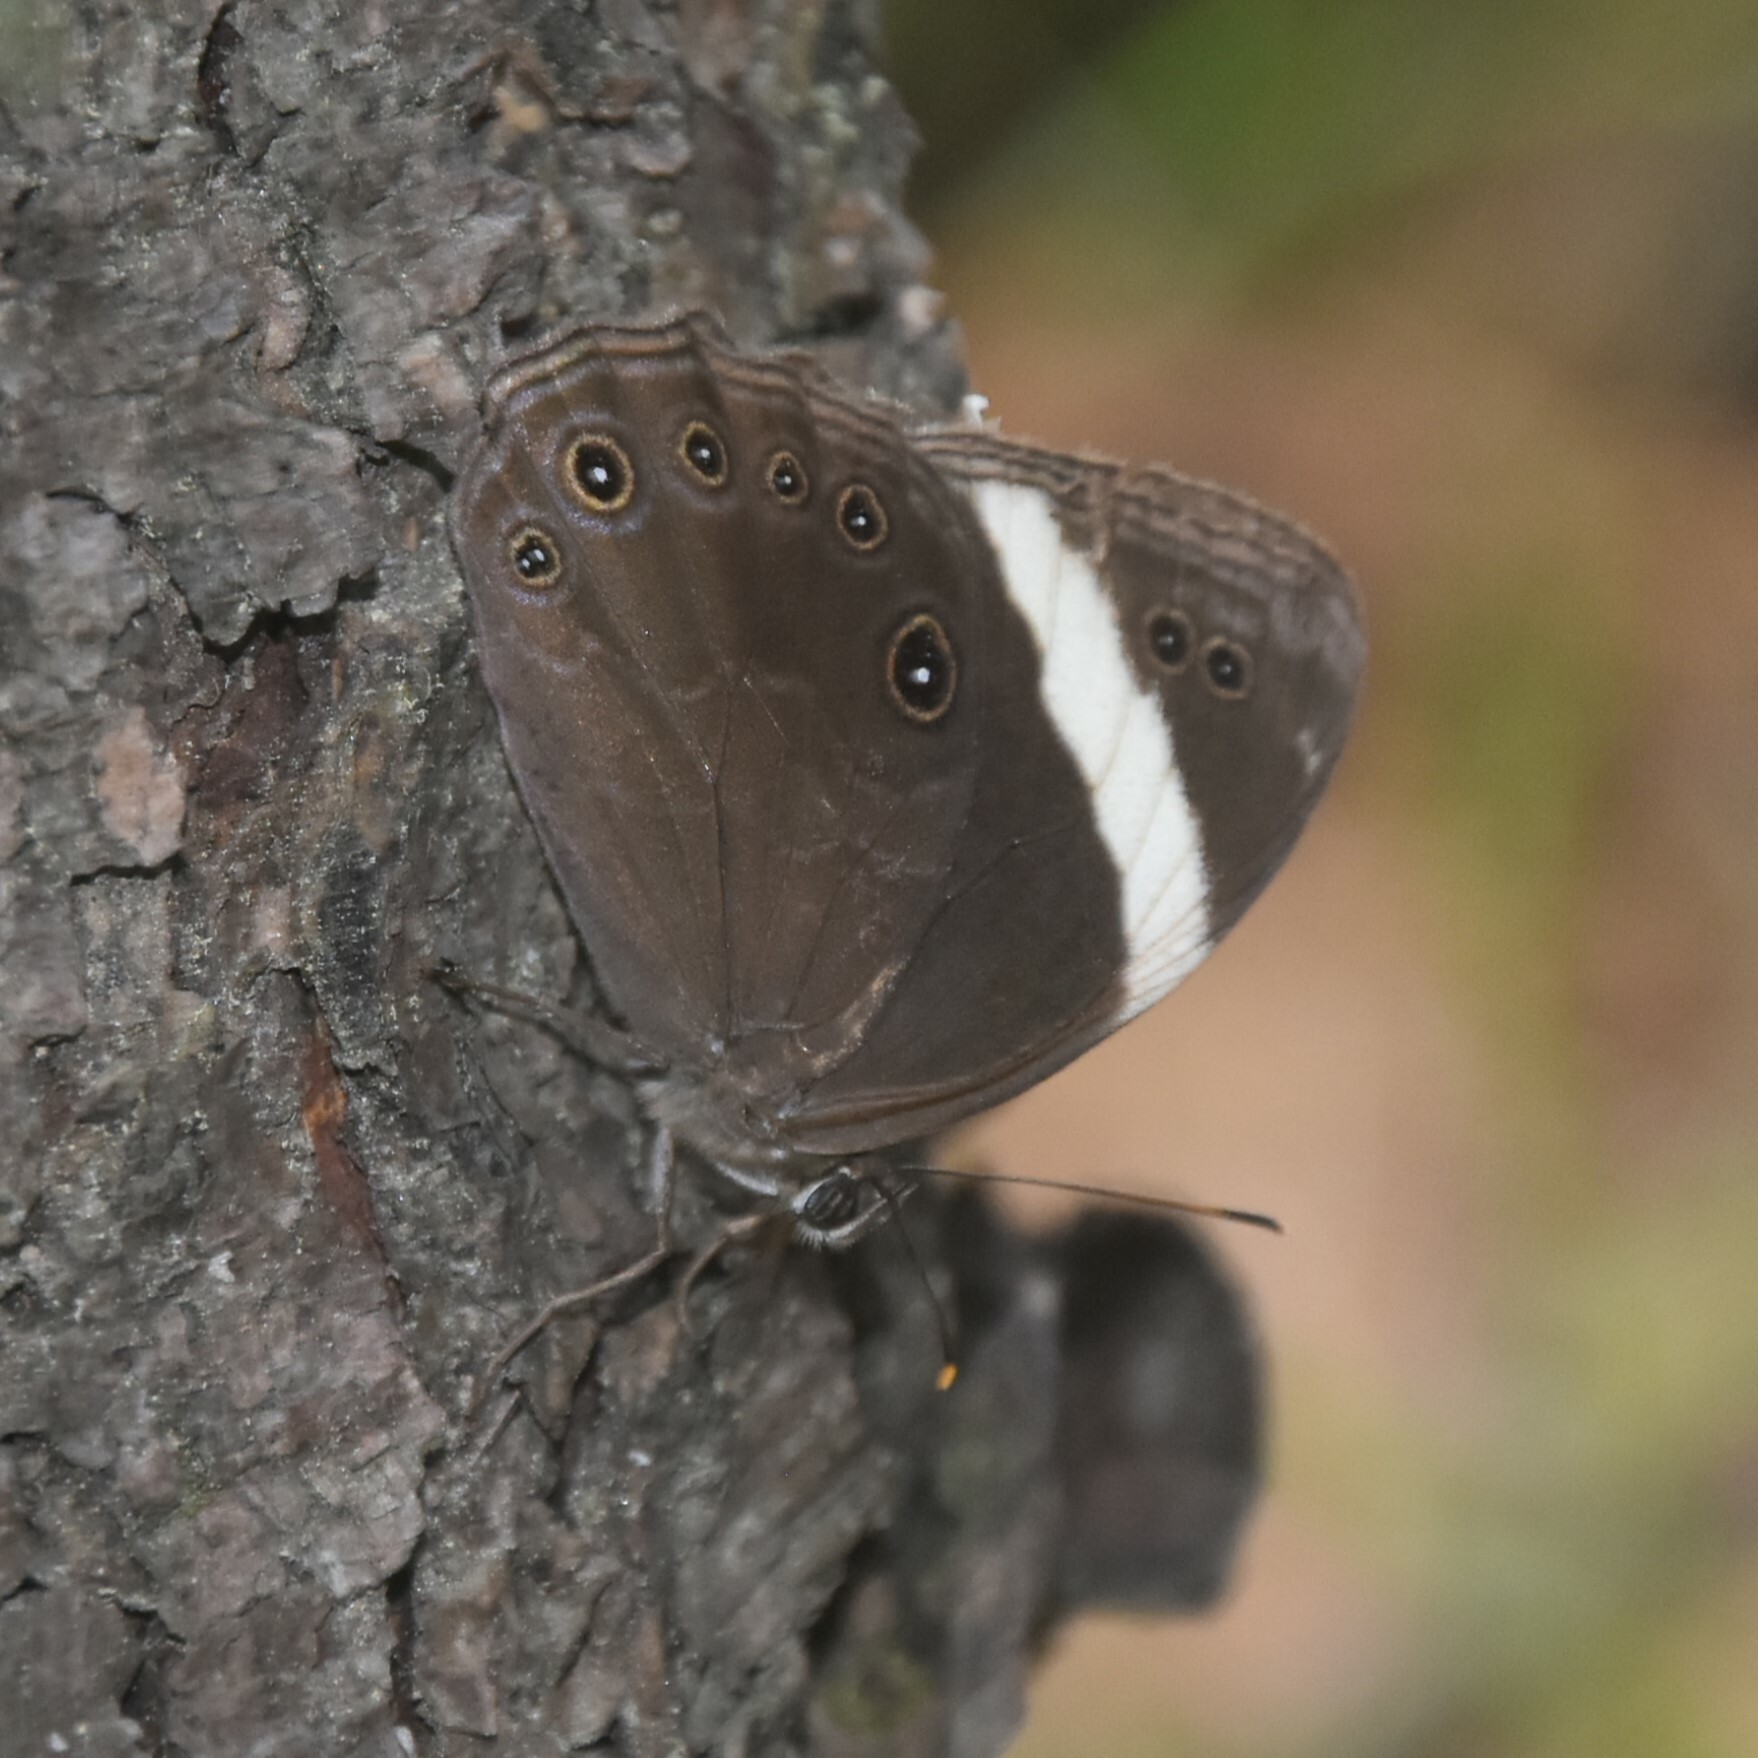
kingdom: Animalia
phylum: Arthropoda
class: Insecta
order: Lepidoptera
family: Nymphalidae
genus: Lethe
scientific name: Lethe verma
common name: Straight-banded treebrown
